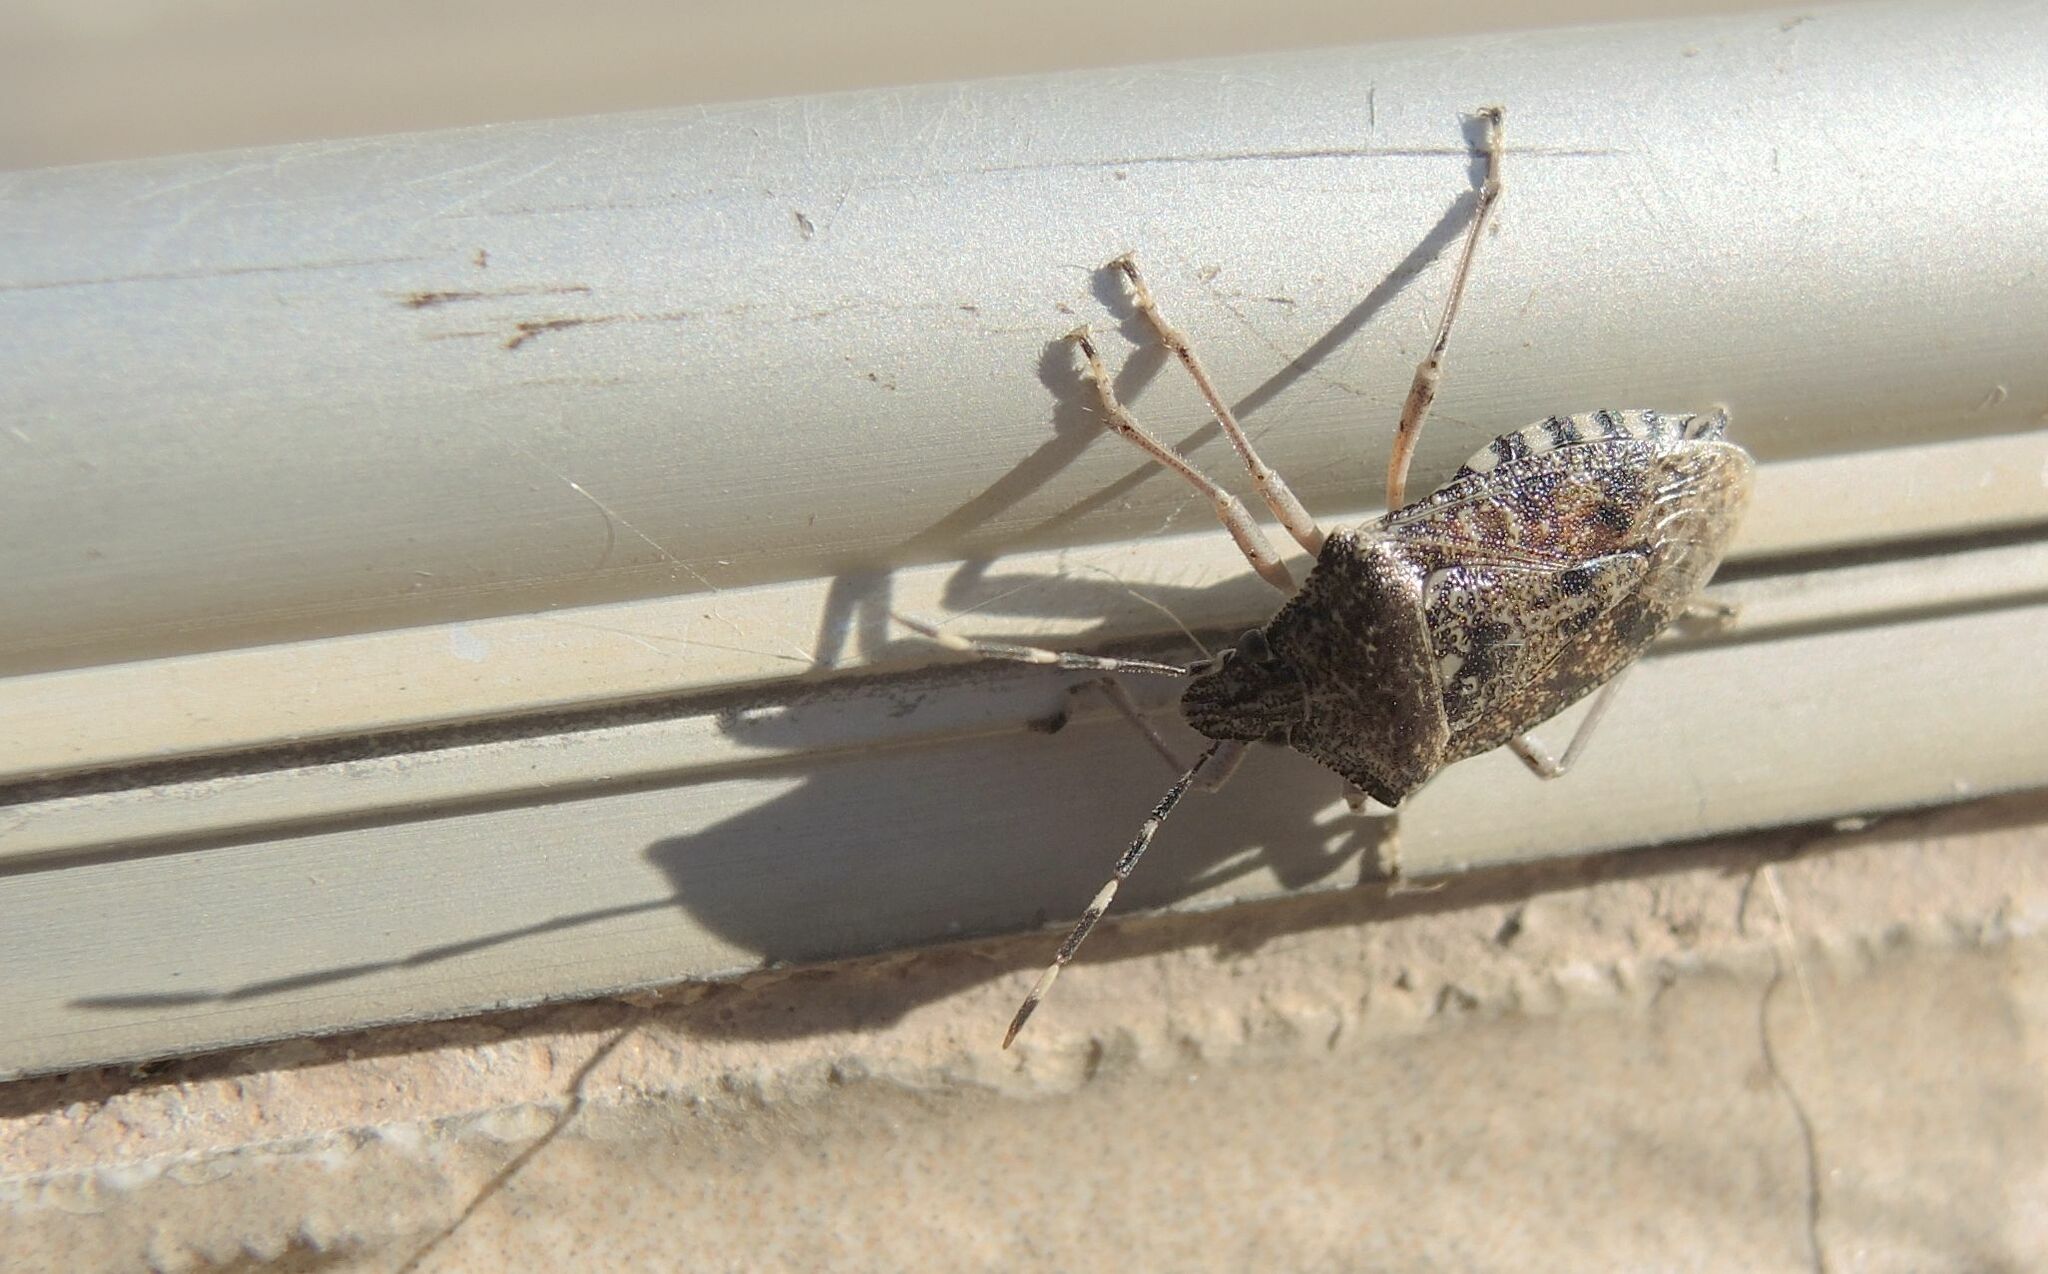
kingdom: Animalia
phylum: Arthropoda
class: Insecta
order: Hemiptera
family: Pentatomidae
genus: Rhaphigaster
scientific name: Rhaphigaster nebulosa
